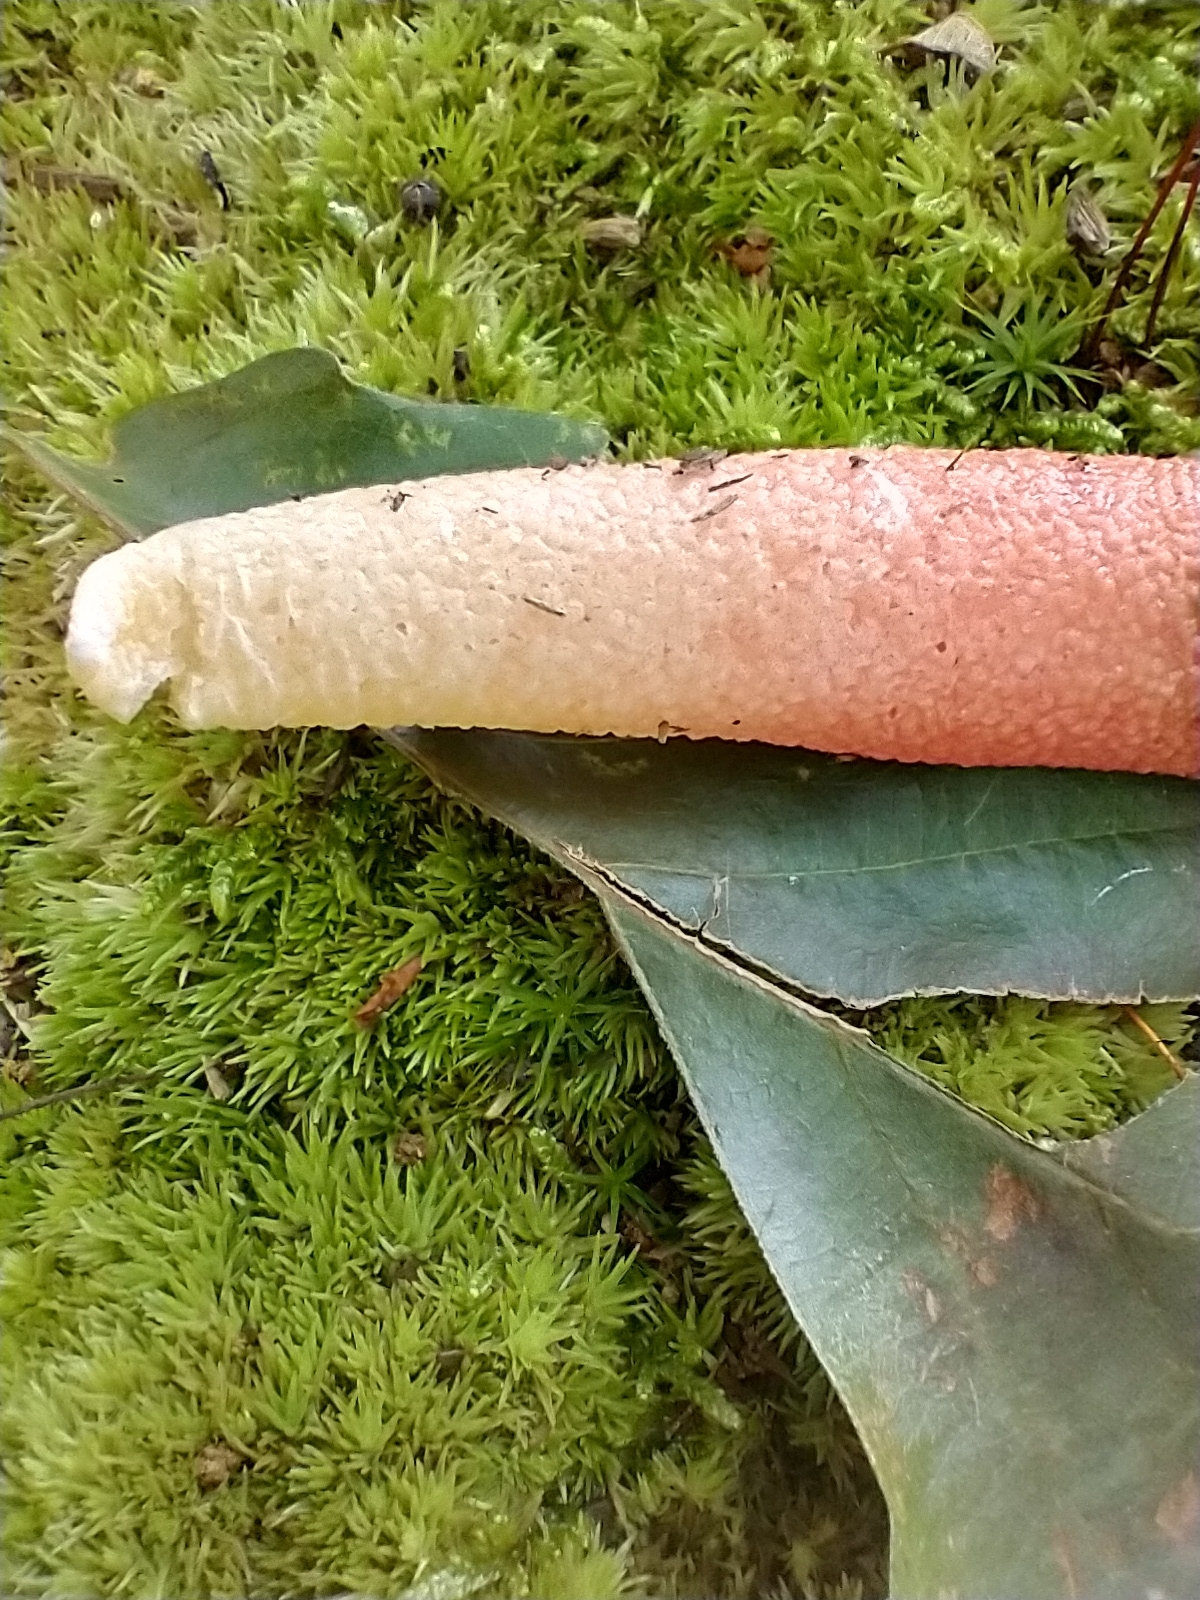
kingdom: Fungi
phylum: Basidiomycota
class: Agaricomycetes
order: Phallales
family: Phallaceae
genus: Mutinus
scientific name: Mutinus elegans
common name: Devil's dipstick
